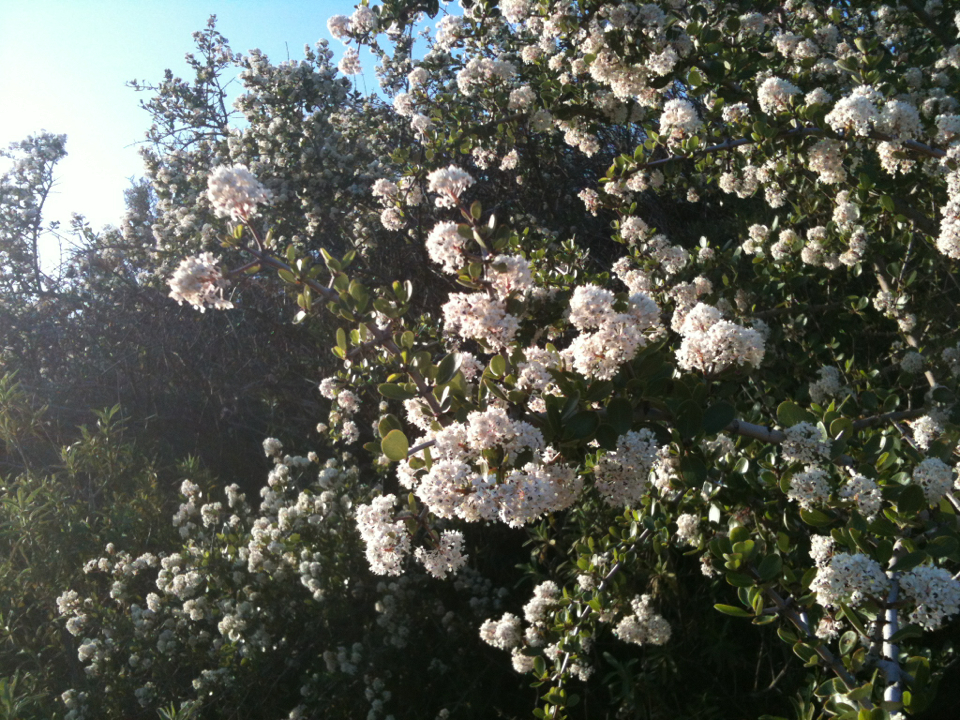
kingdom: Plantae
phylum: Tracheophyta
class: Magnoliopsida
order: Rosales
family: Rhamnaceae
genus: Ceanothus
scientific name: Ceanothus cuneatus
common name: Cuneate ceanothus
